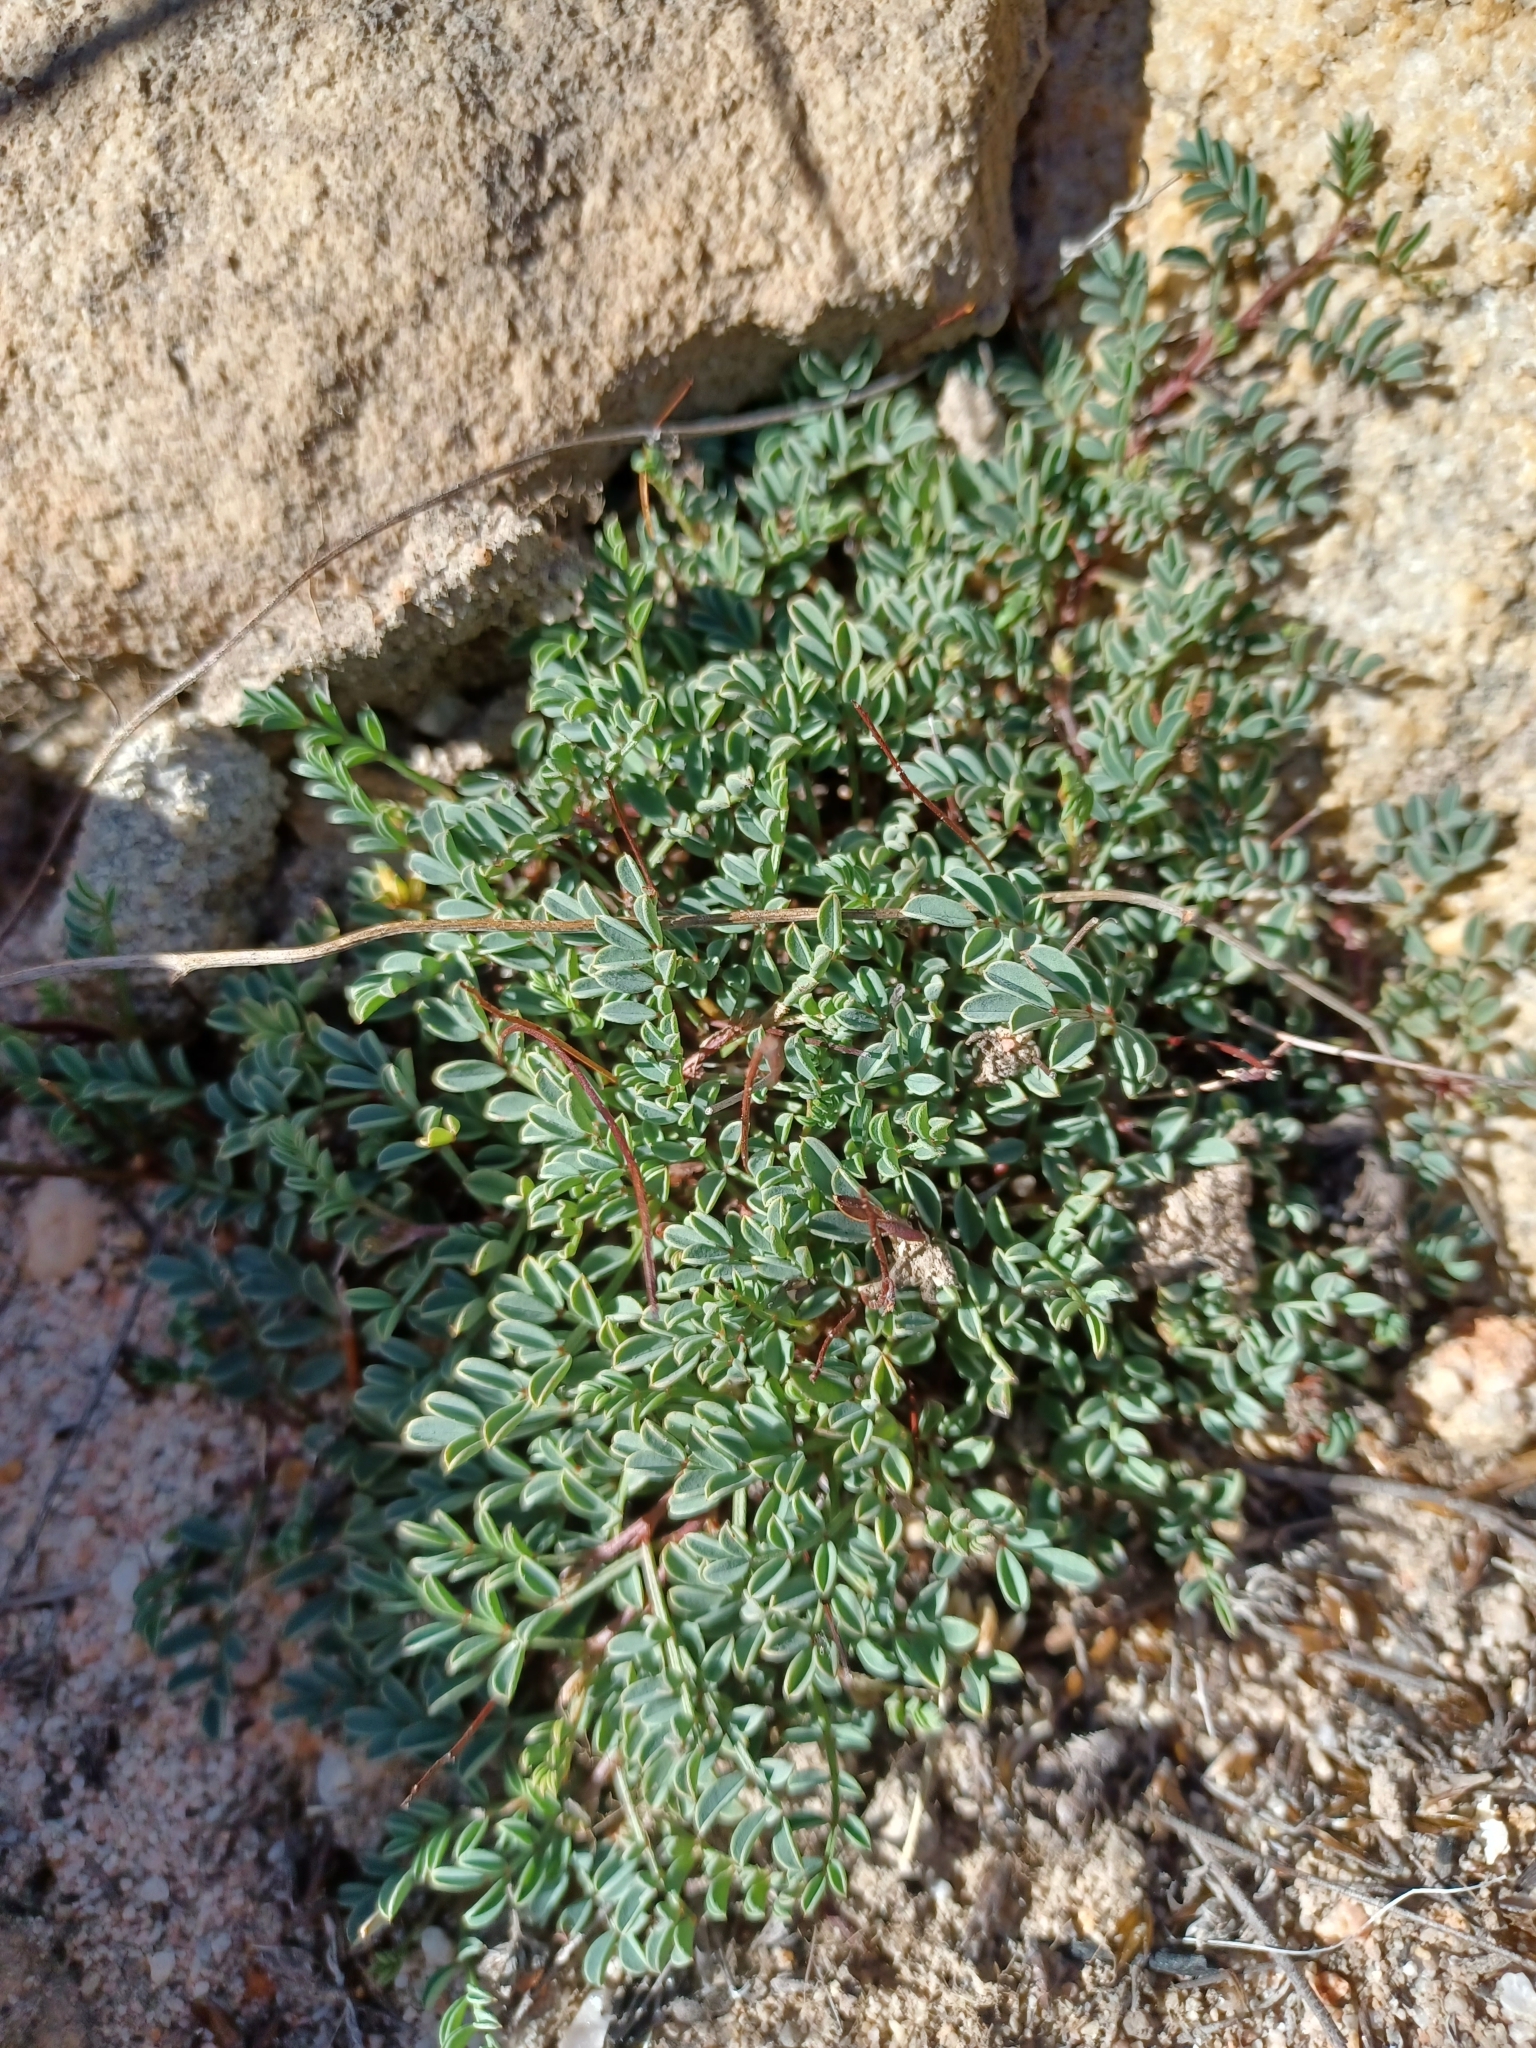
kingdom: Plantae
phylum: Tracheophyta
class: Magnoliopsida
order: Fabales
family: Fabaceae
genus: Indigofera
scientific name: Indigofera capillaris
